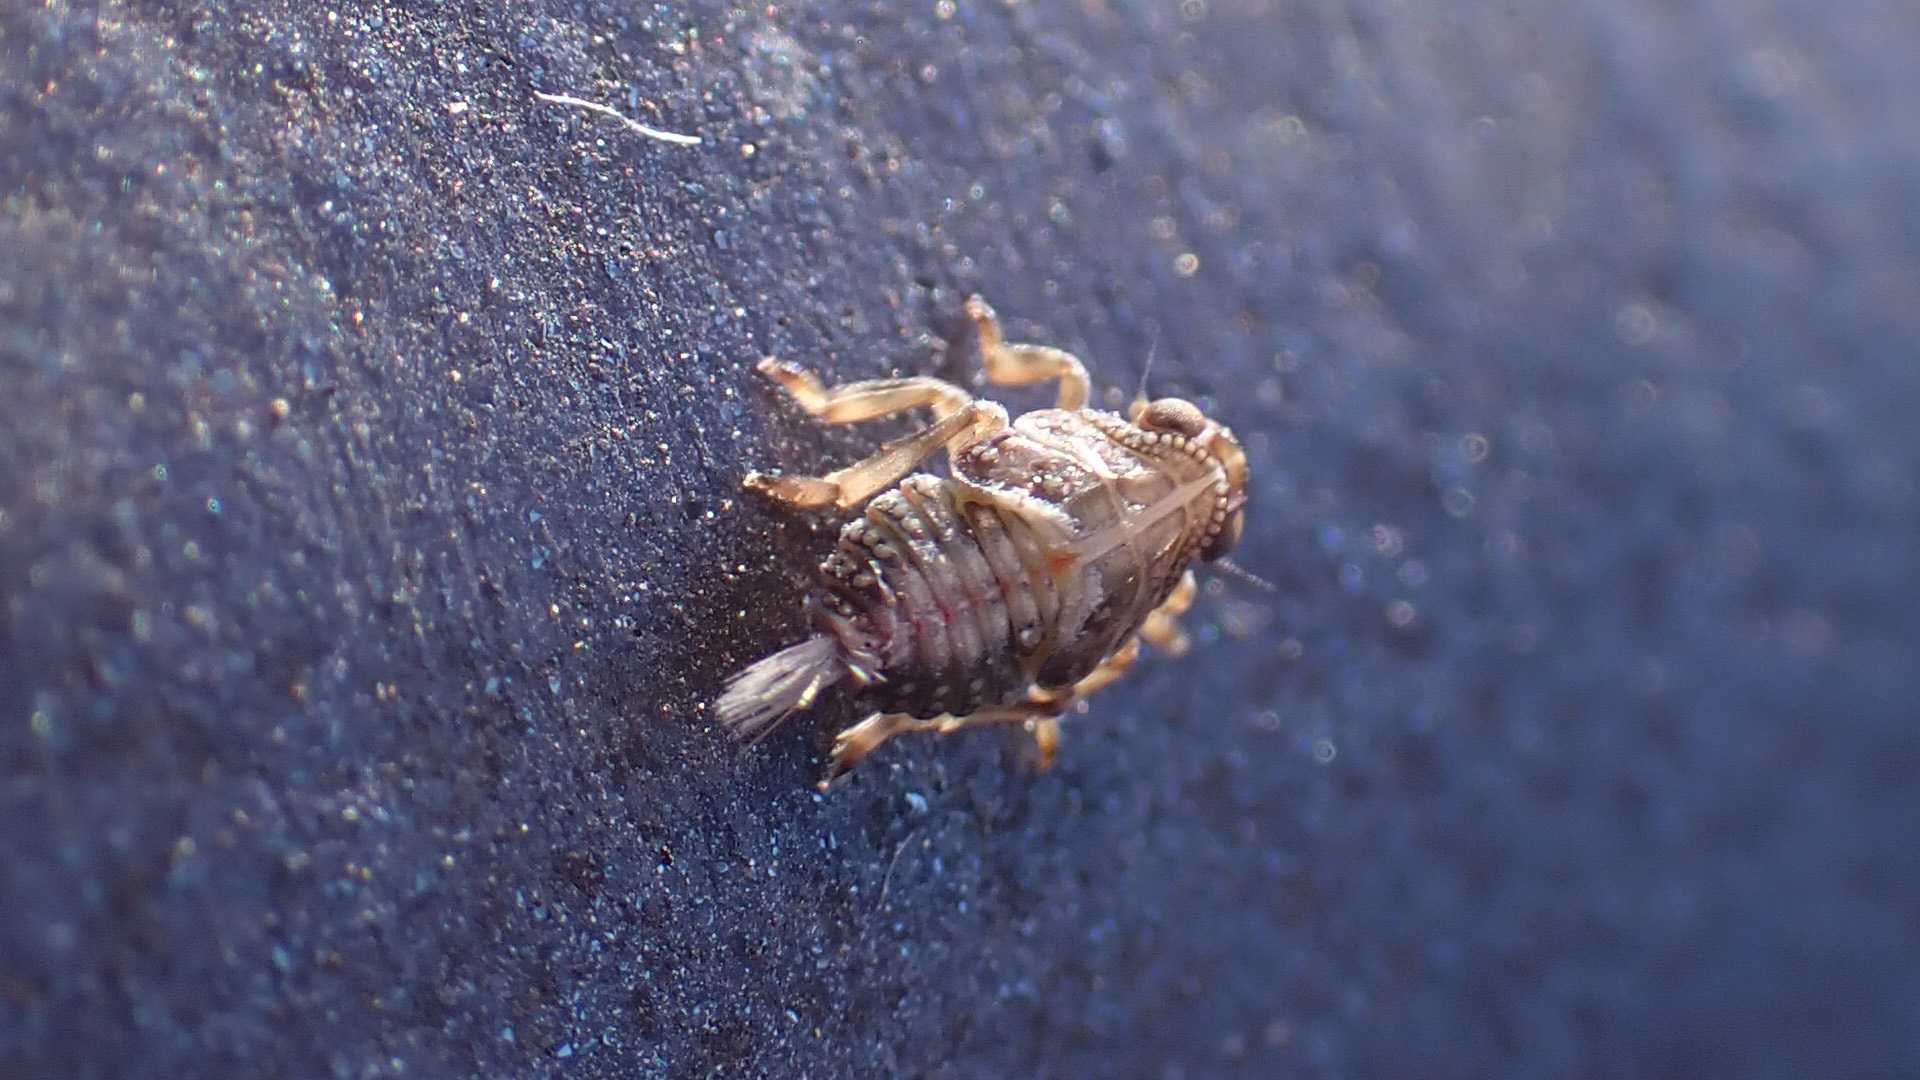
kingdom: Animalia
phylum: Arthropoda
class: Insecta
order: Hemiptera
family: Issidae
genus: Issus
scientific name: Issus
